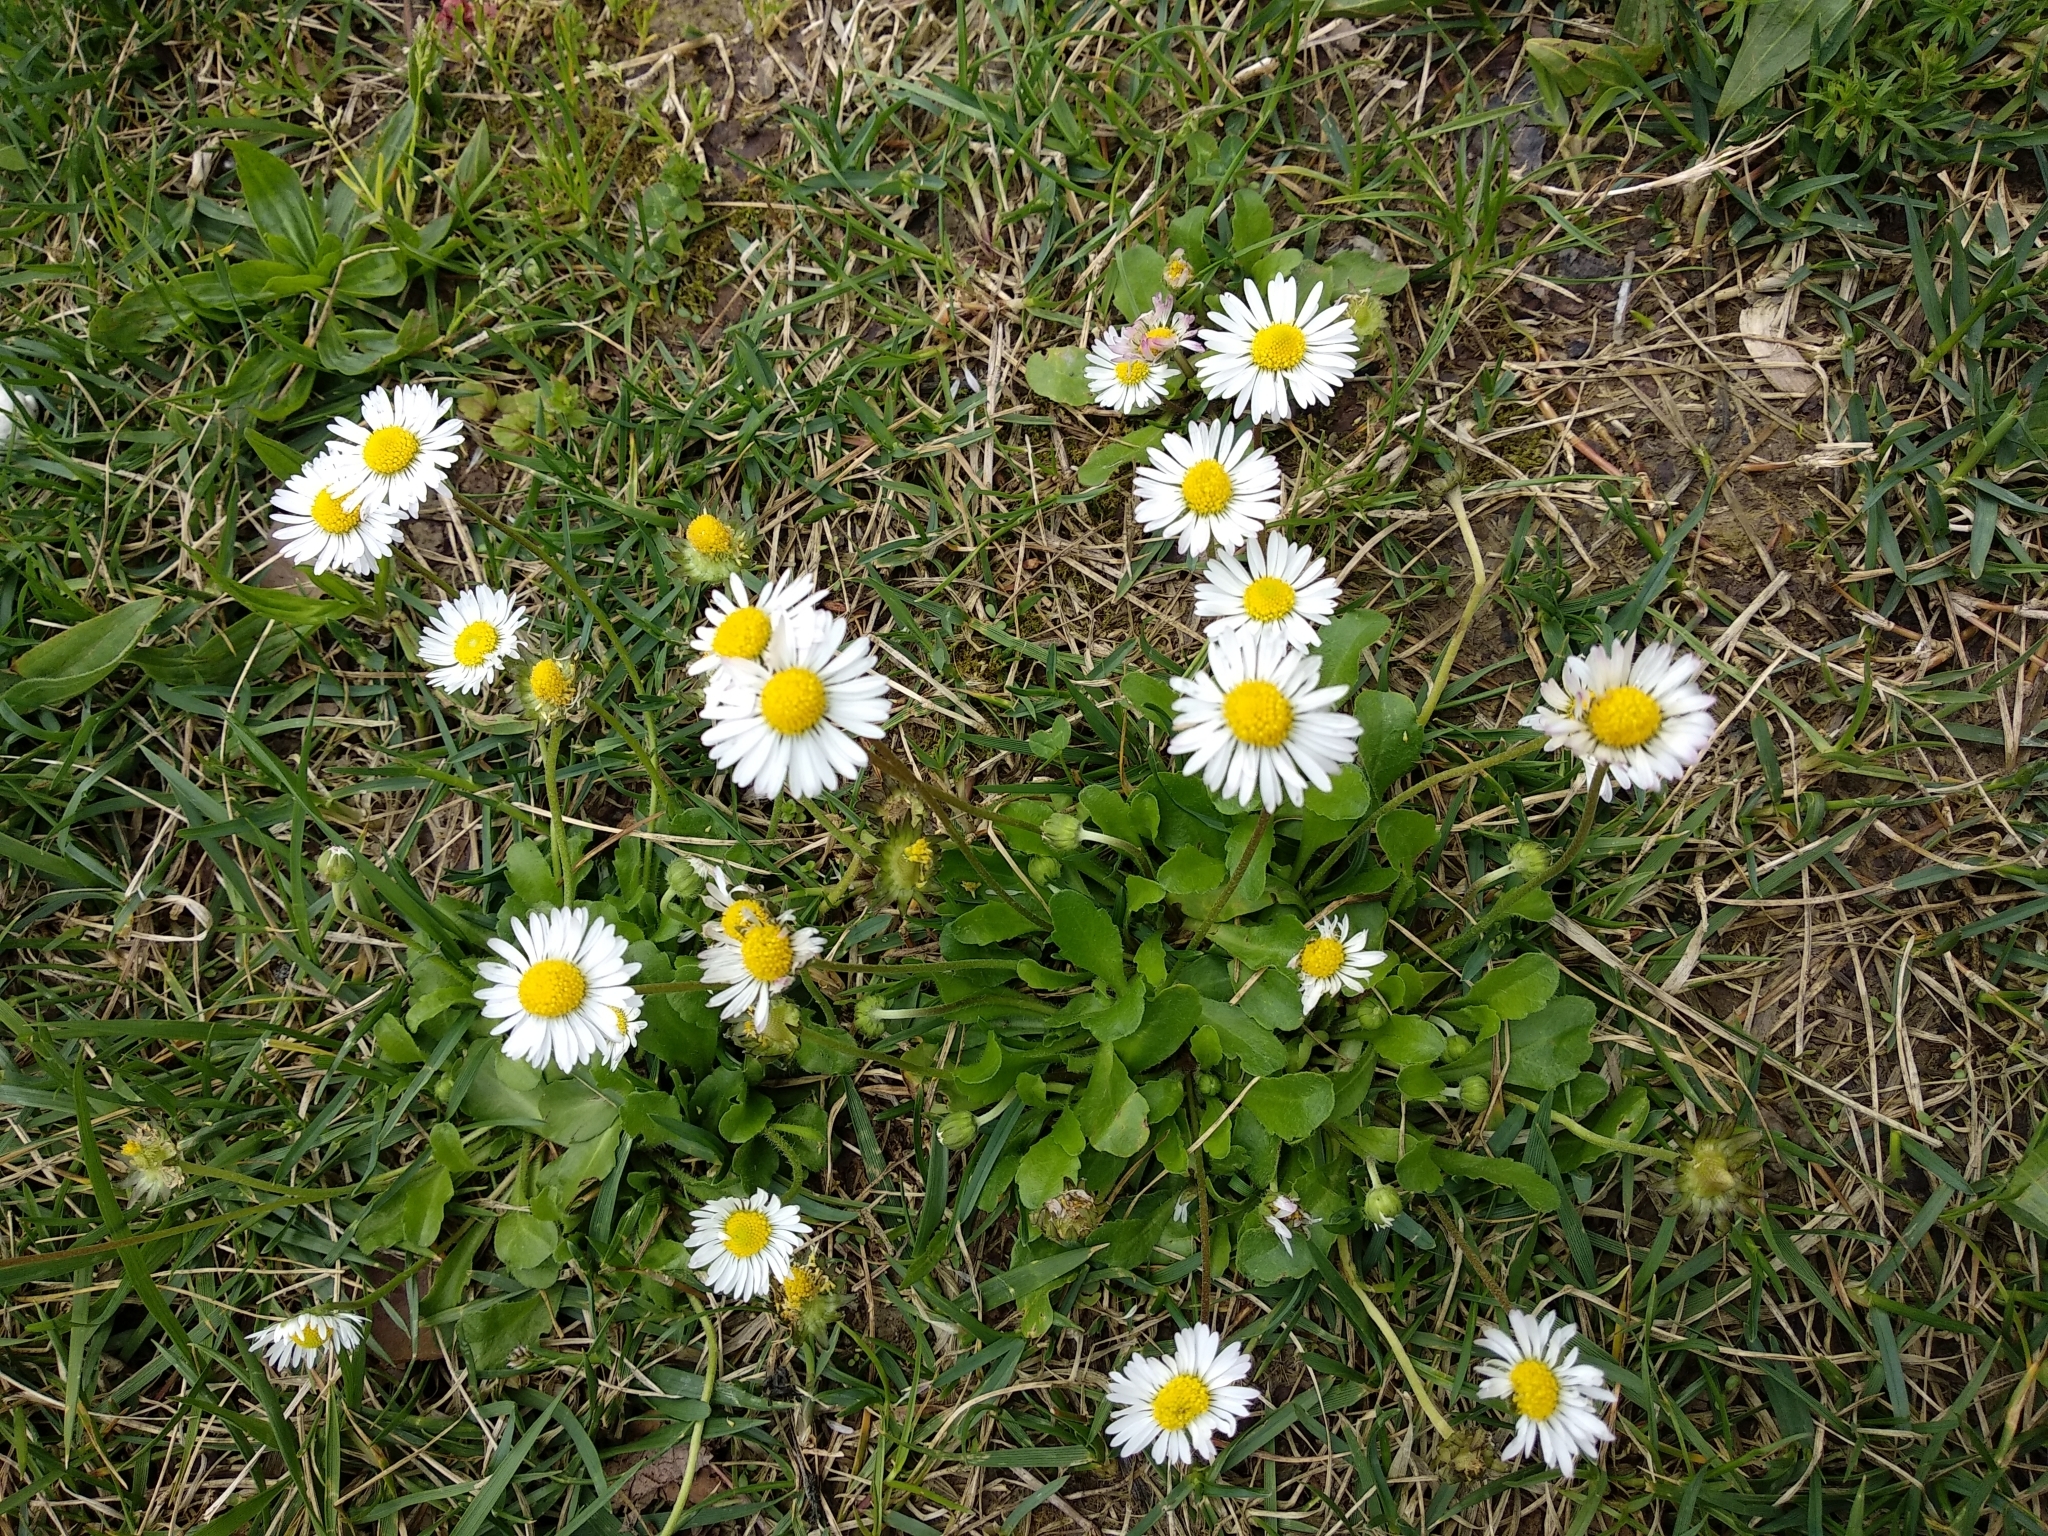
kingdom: Plantae
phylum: Tracheophyta
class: Magnoliopsida
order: Asterales
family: Asteraceae
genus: Bellis
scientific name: Bellis perennis
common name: Lawndaisy
